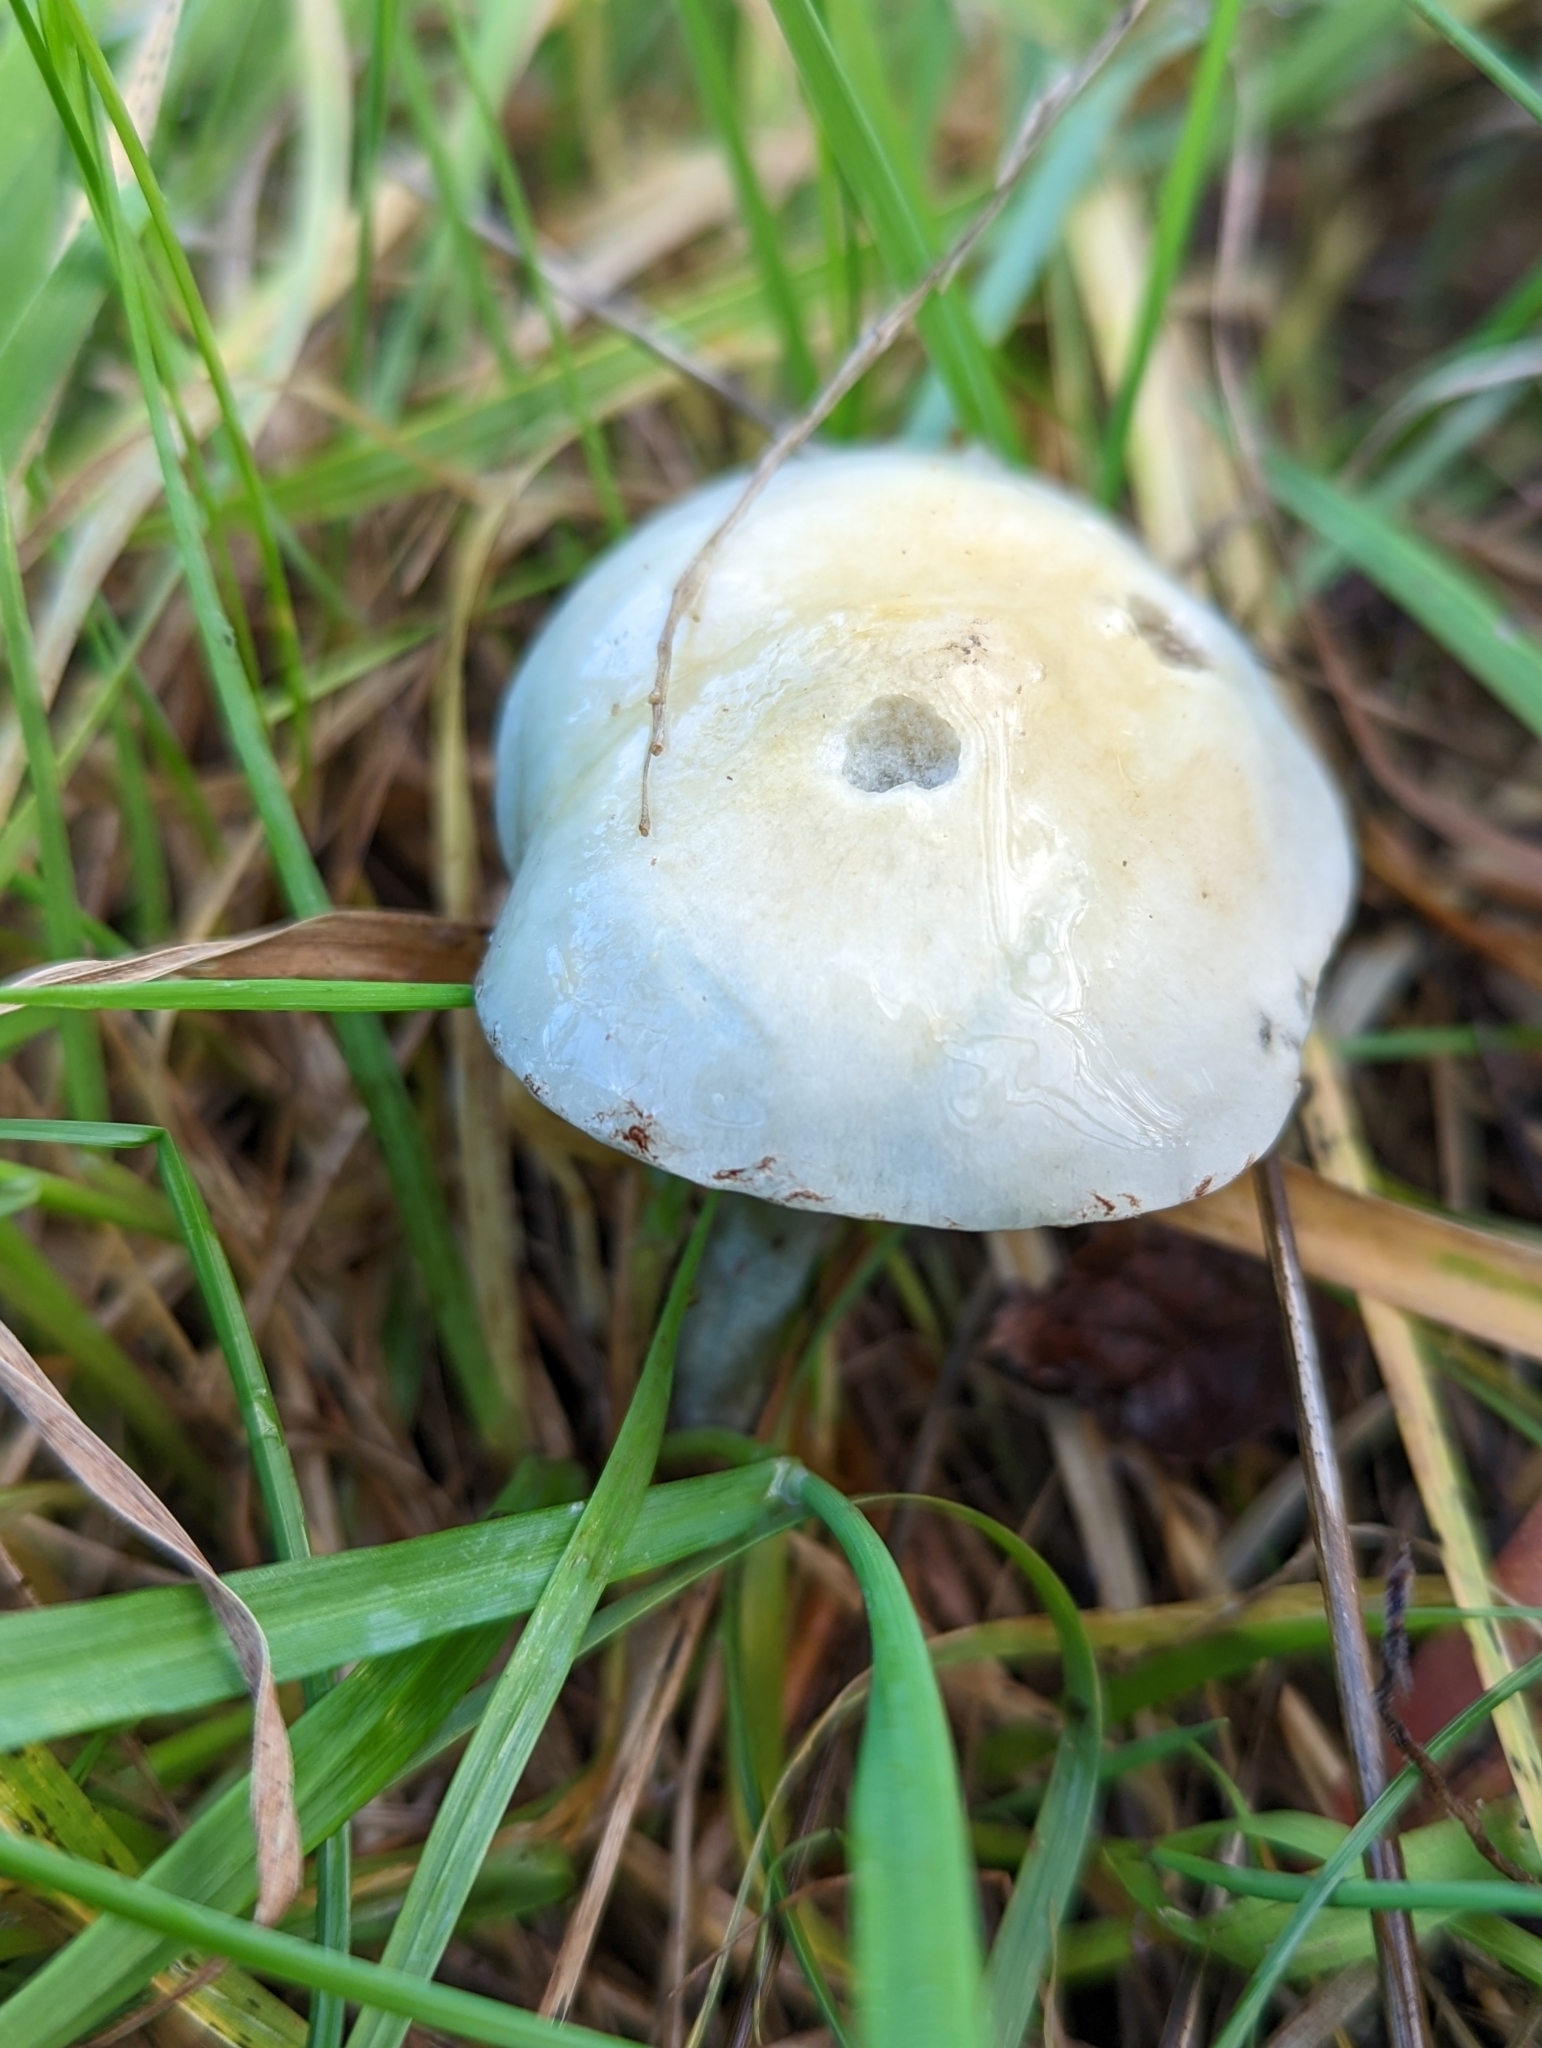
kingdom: Fungi
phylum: Basidiomycota
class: Agaricomycetes
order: Agaricales
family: Strophariaceae
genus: Stropharia
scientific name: Stropharia caerulea
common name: Blue roundhead
